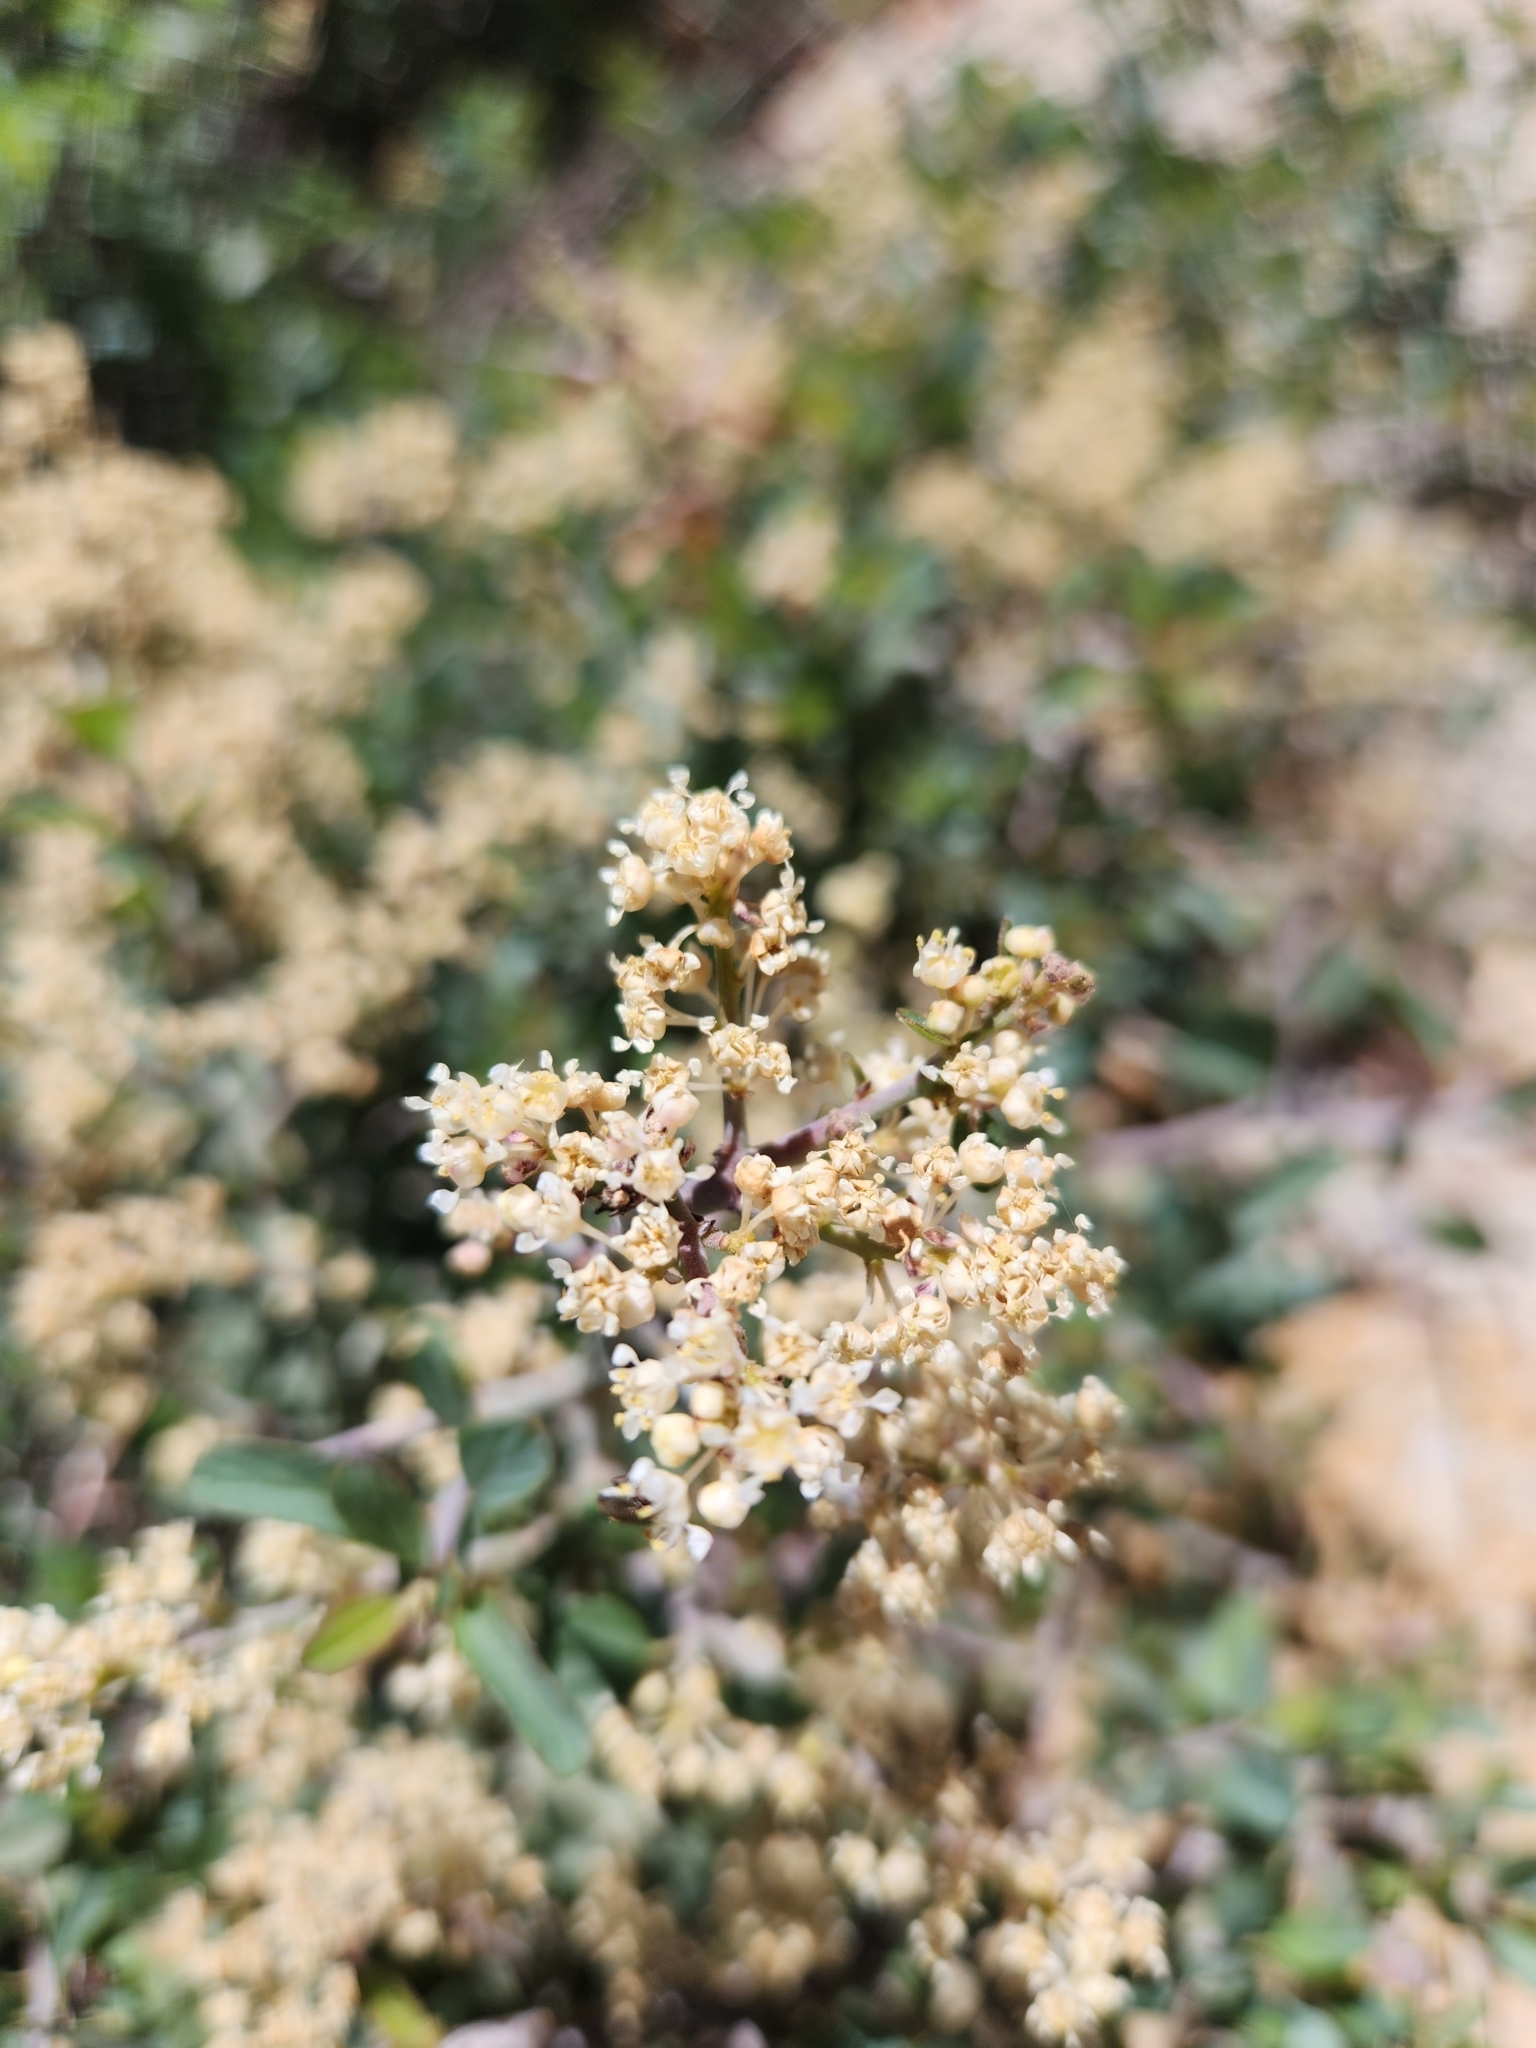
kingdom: Plantae
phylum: Tracheophyta
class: Magnoliopsida
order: Rosales
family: Rhamnaceae
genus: Ceanothus
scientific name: Ceanothus cordulatus
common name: Mountain whitethorn
